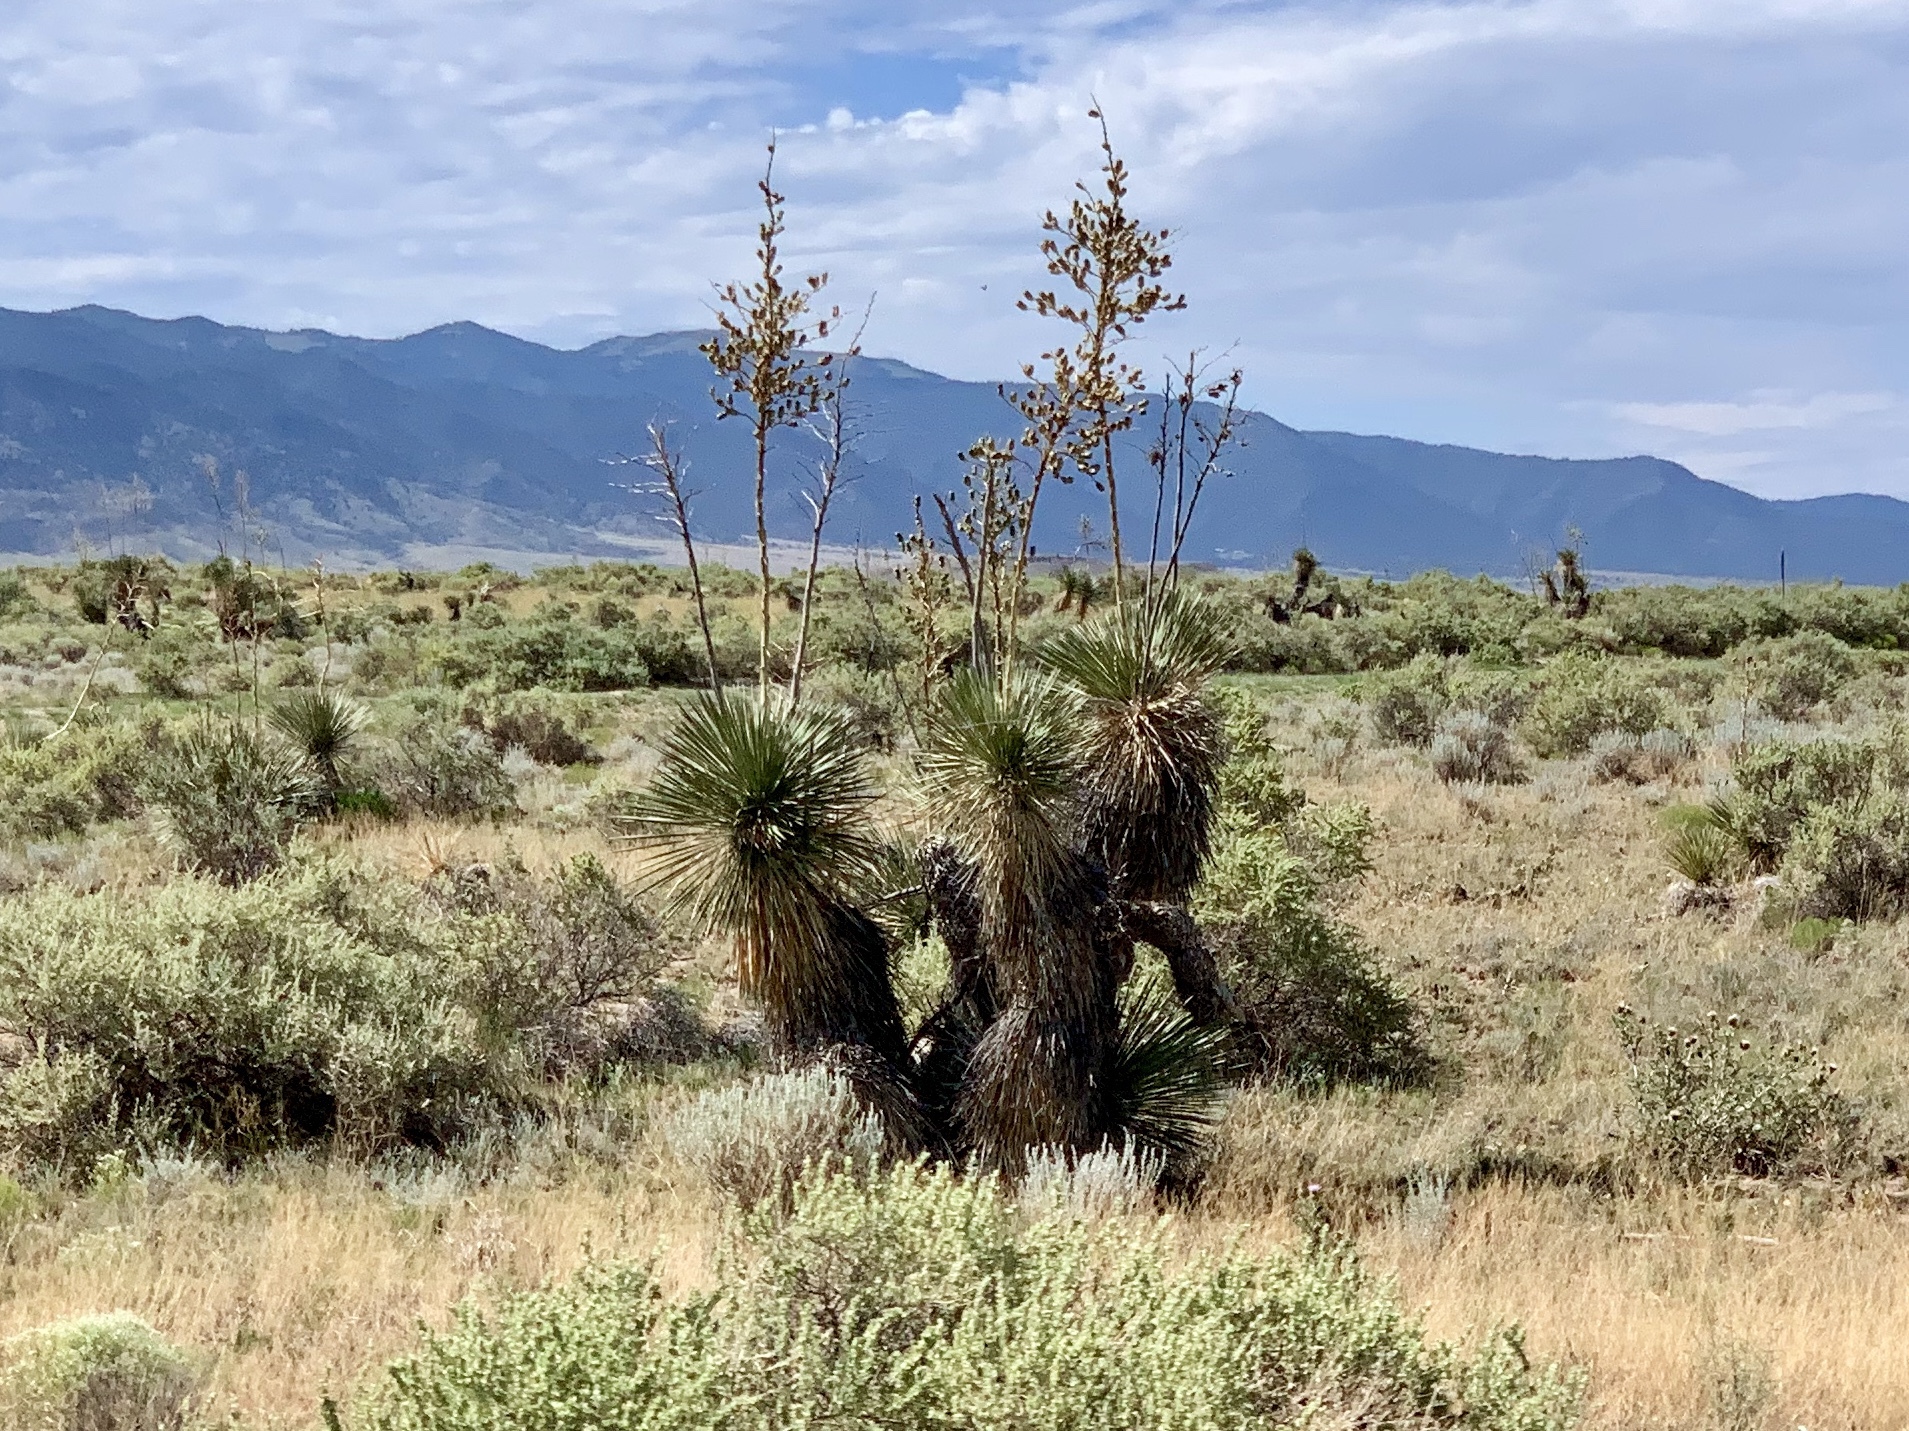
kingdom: Plantae
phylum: Tracheophyta
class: Liliopsida
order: Asparagales
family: Asparagaceae
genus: Yucca
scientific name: Yucca elata
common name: Palmella
